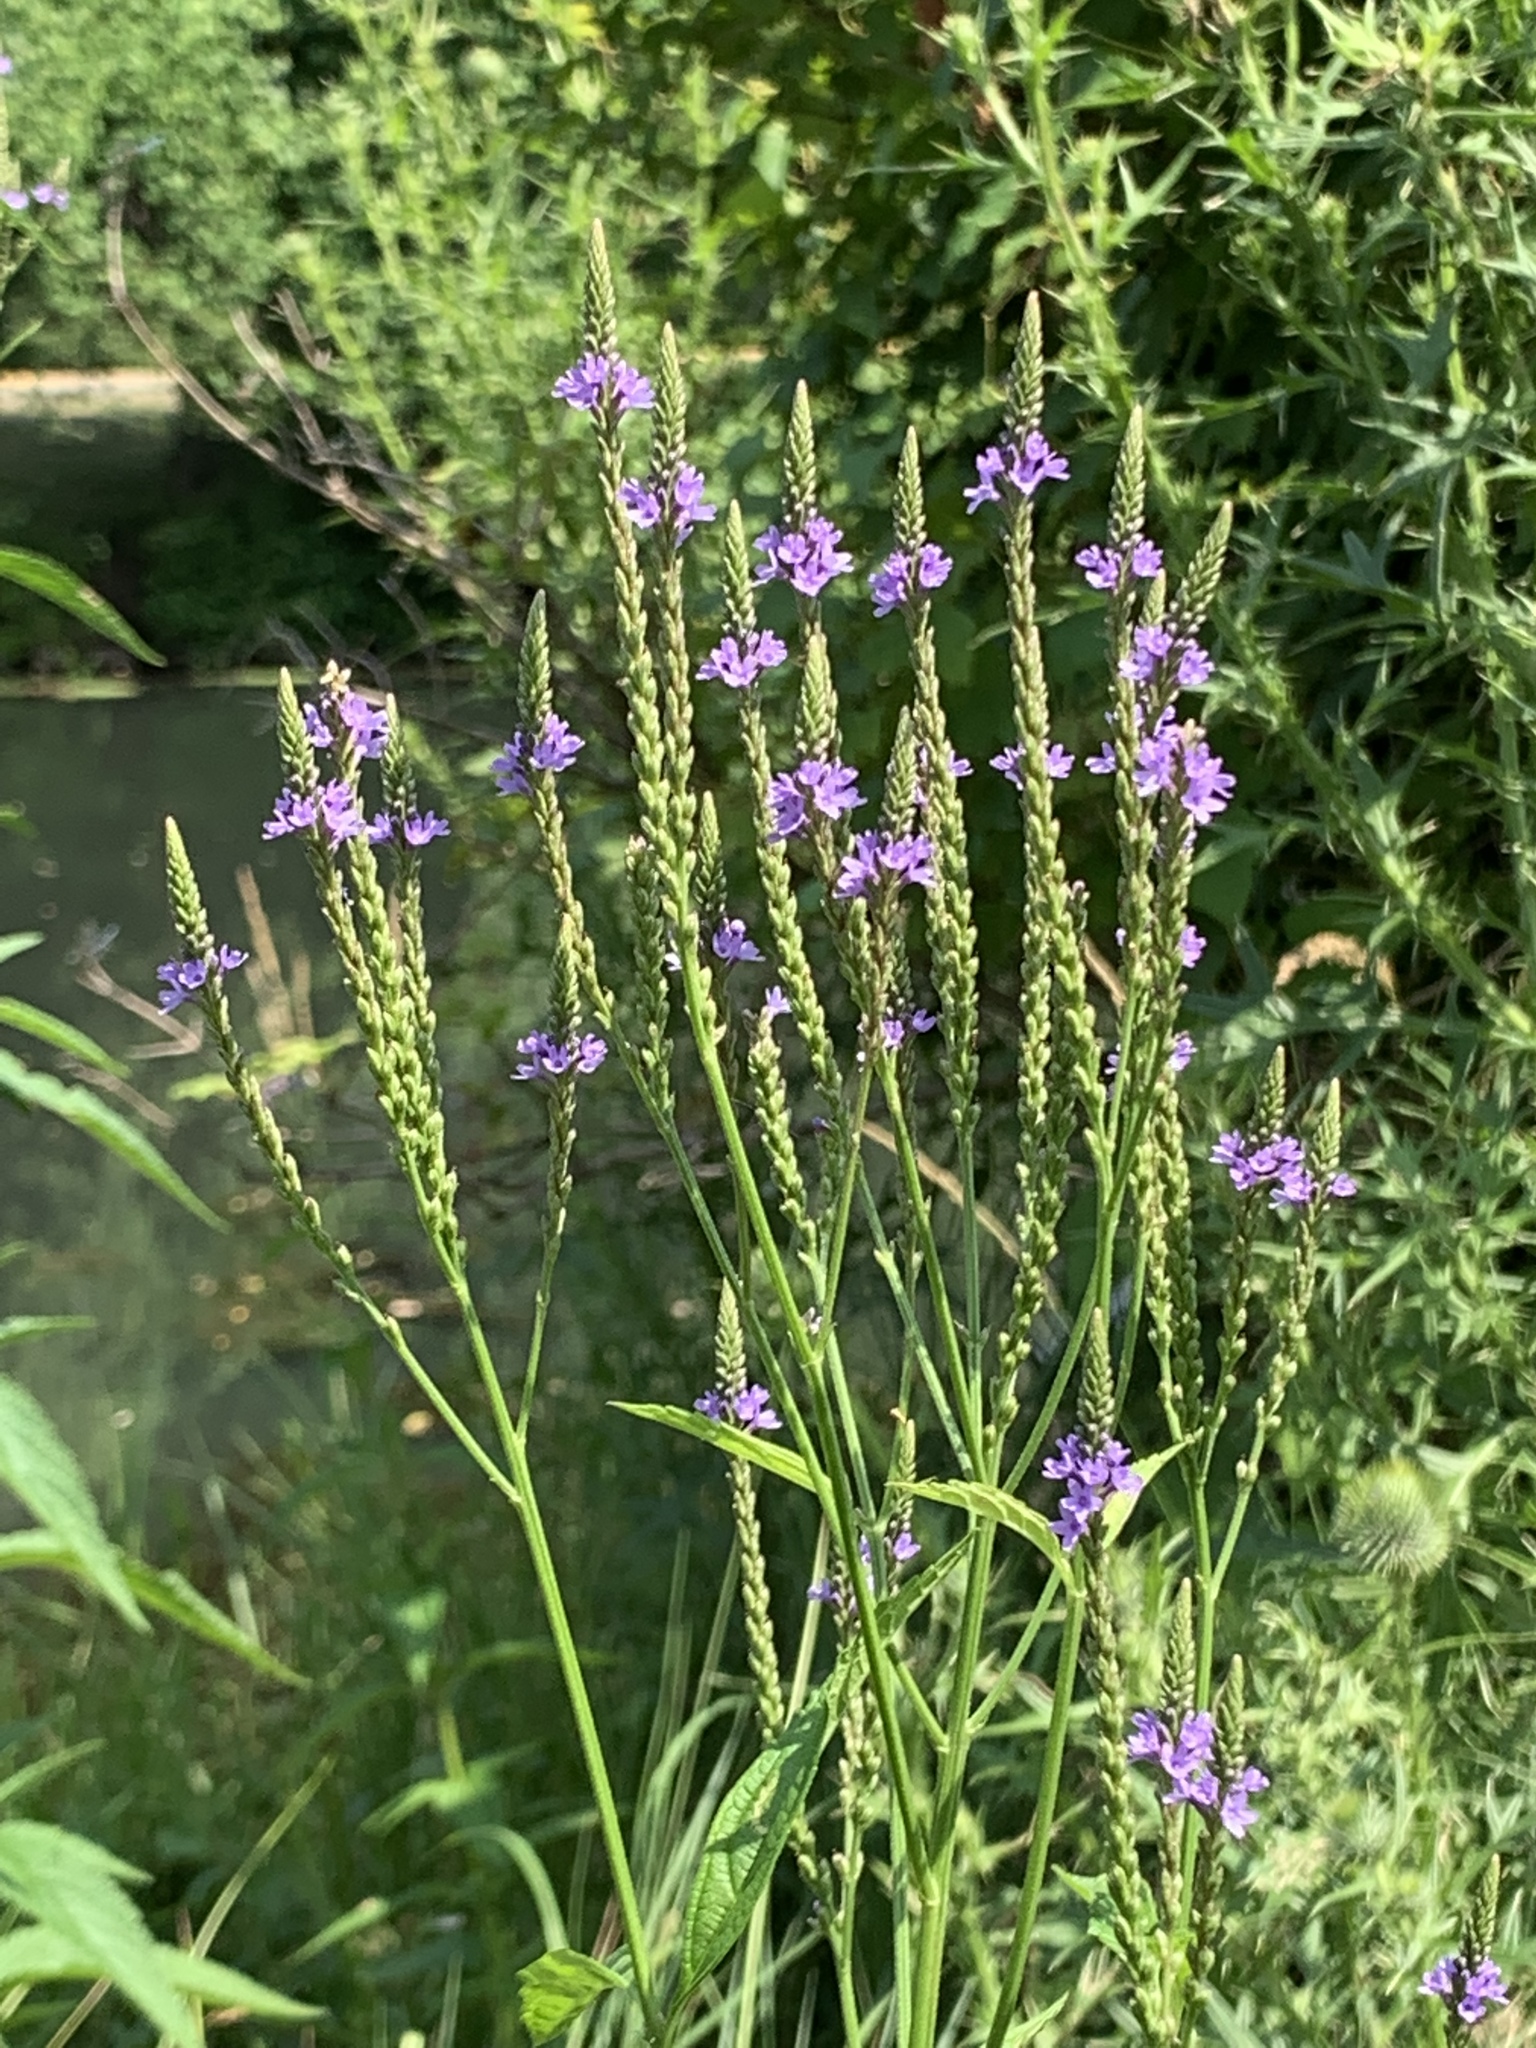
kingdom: Plantae
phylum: Tracheophyta
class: Magnoliopsida
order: Lamiales
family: Verbenaceae
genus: Verbena
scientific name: Verbena hastata
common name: American blue vervain
